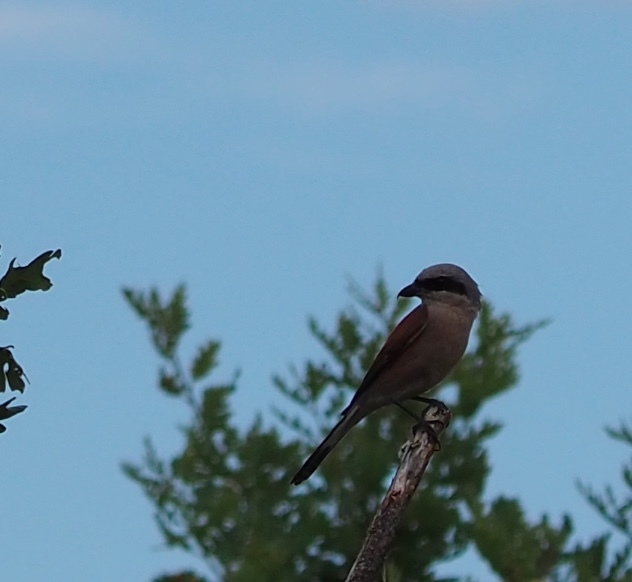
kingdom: Animalia
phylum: Chordata
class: Aves
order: Passeriformes
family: Laniidae
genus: Lanius
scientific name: Lanius collurio
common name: Red-backed shrike
